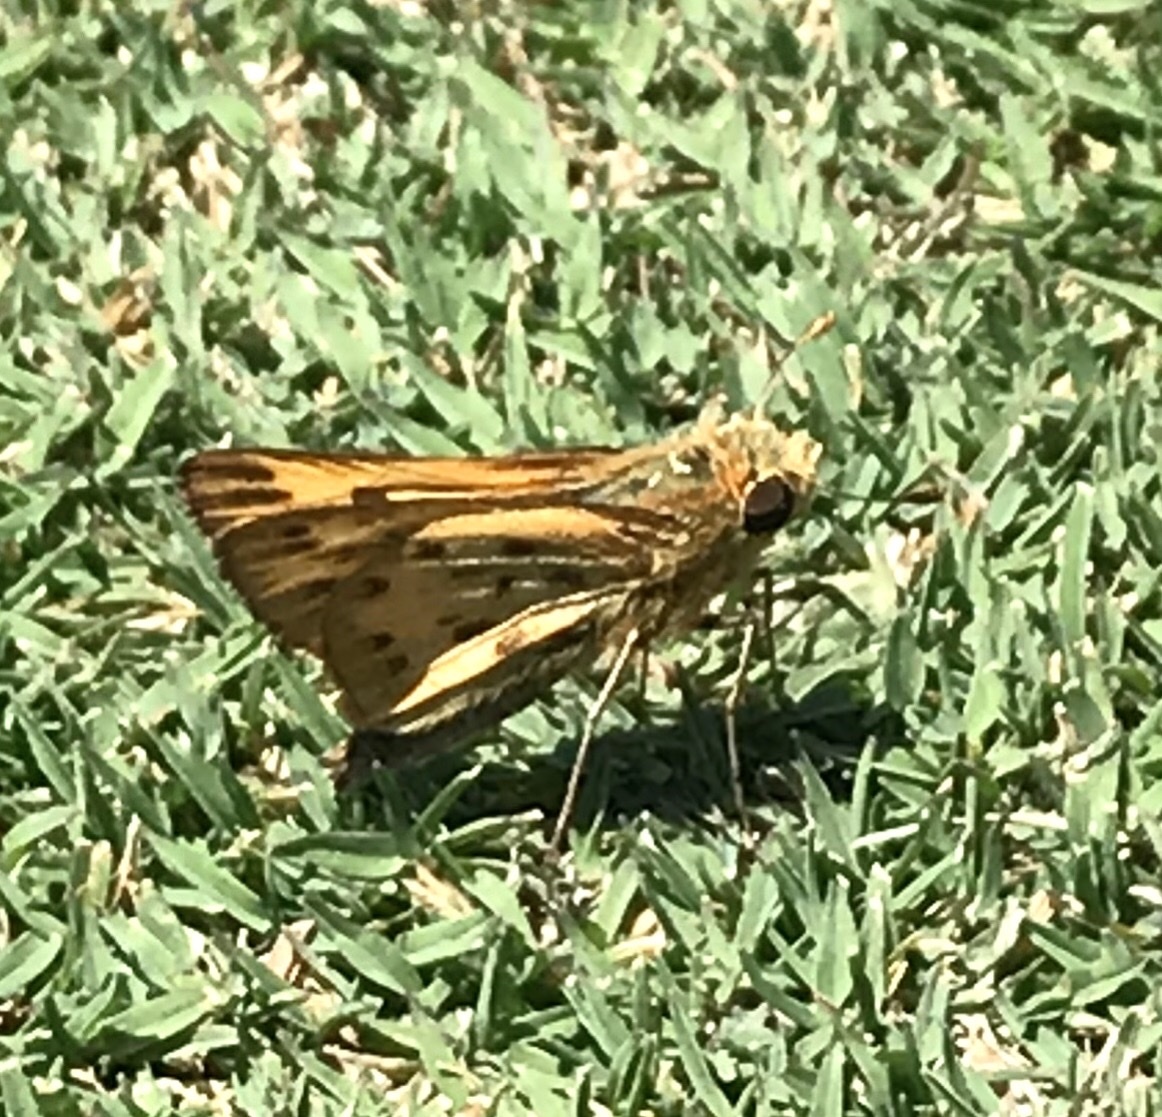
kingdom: Animalia
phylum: Arthropoda
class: Insecta
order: Lepidoptera
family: Hesperiidae
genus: Hylephila
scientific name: Hylephila phyleus
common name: Fiery skipper
